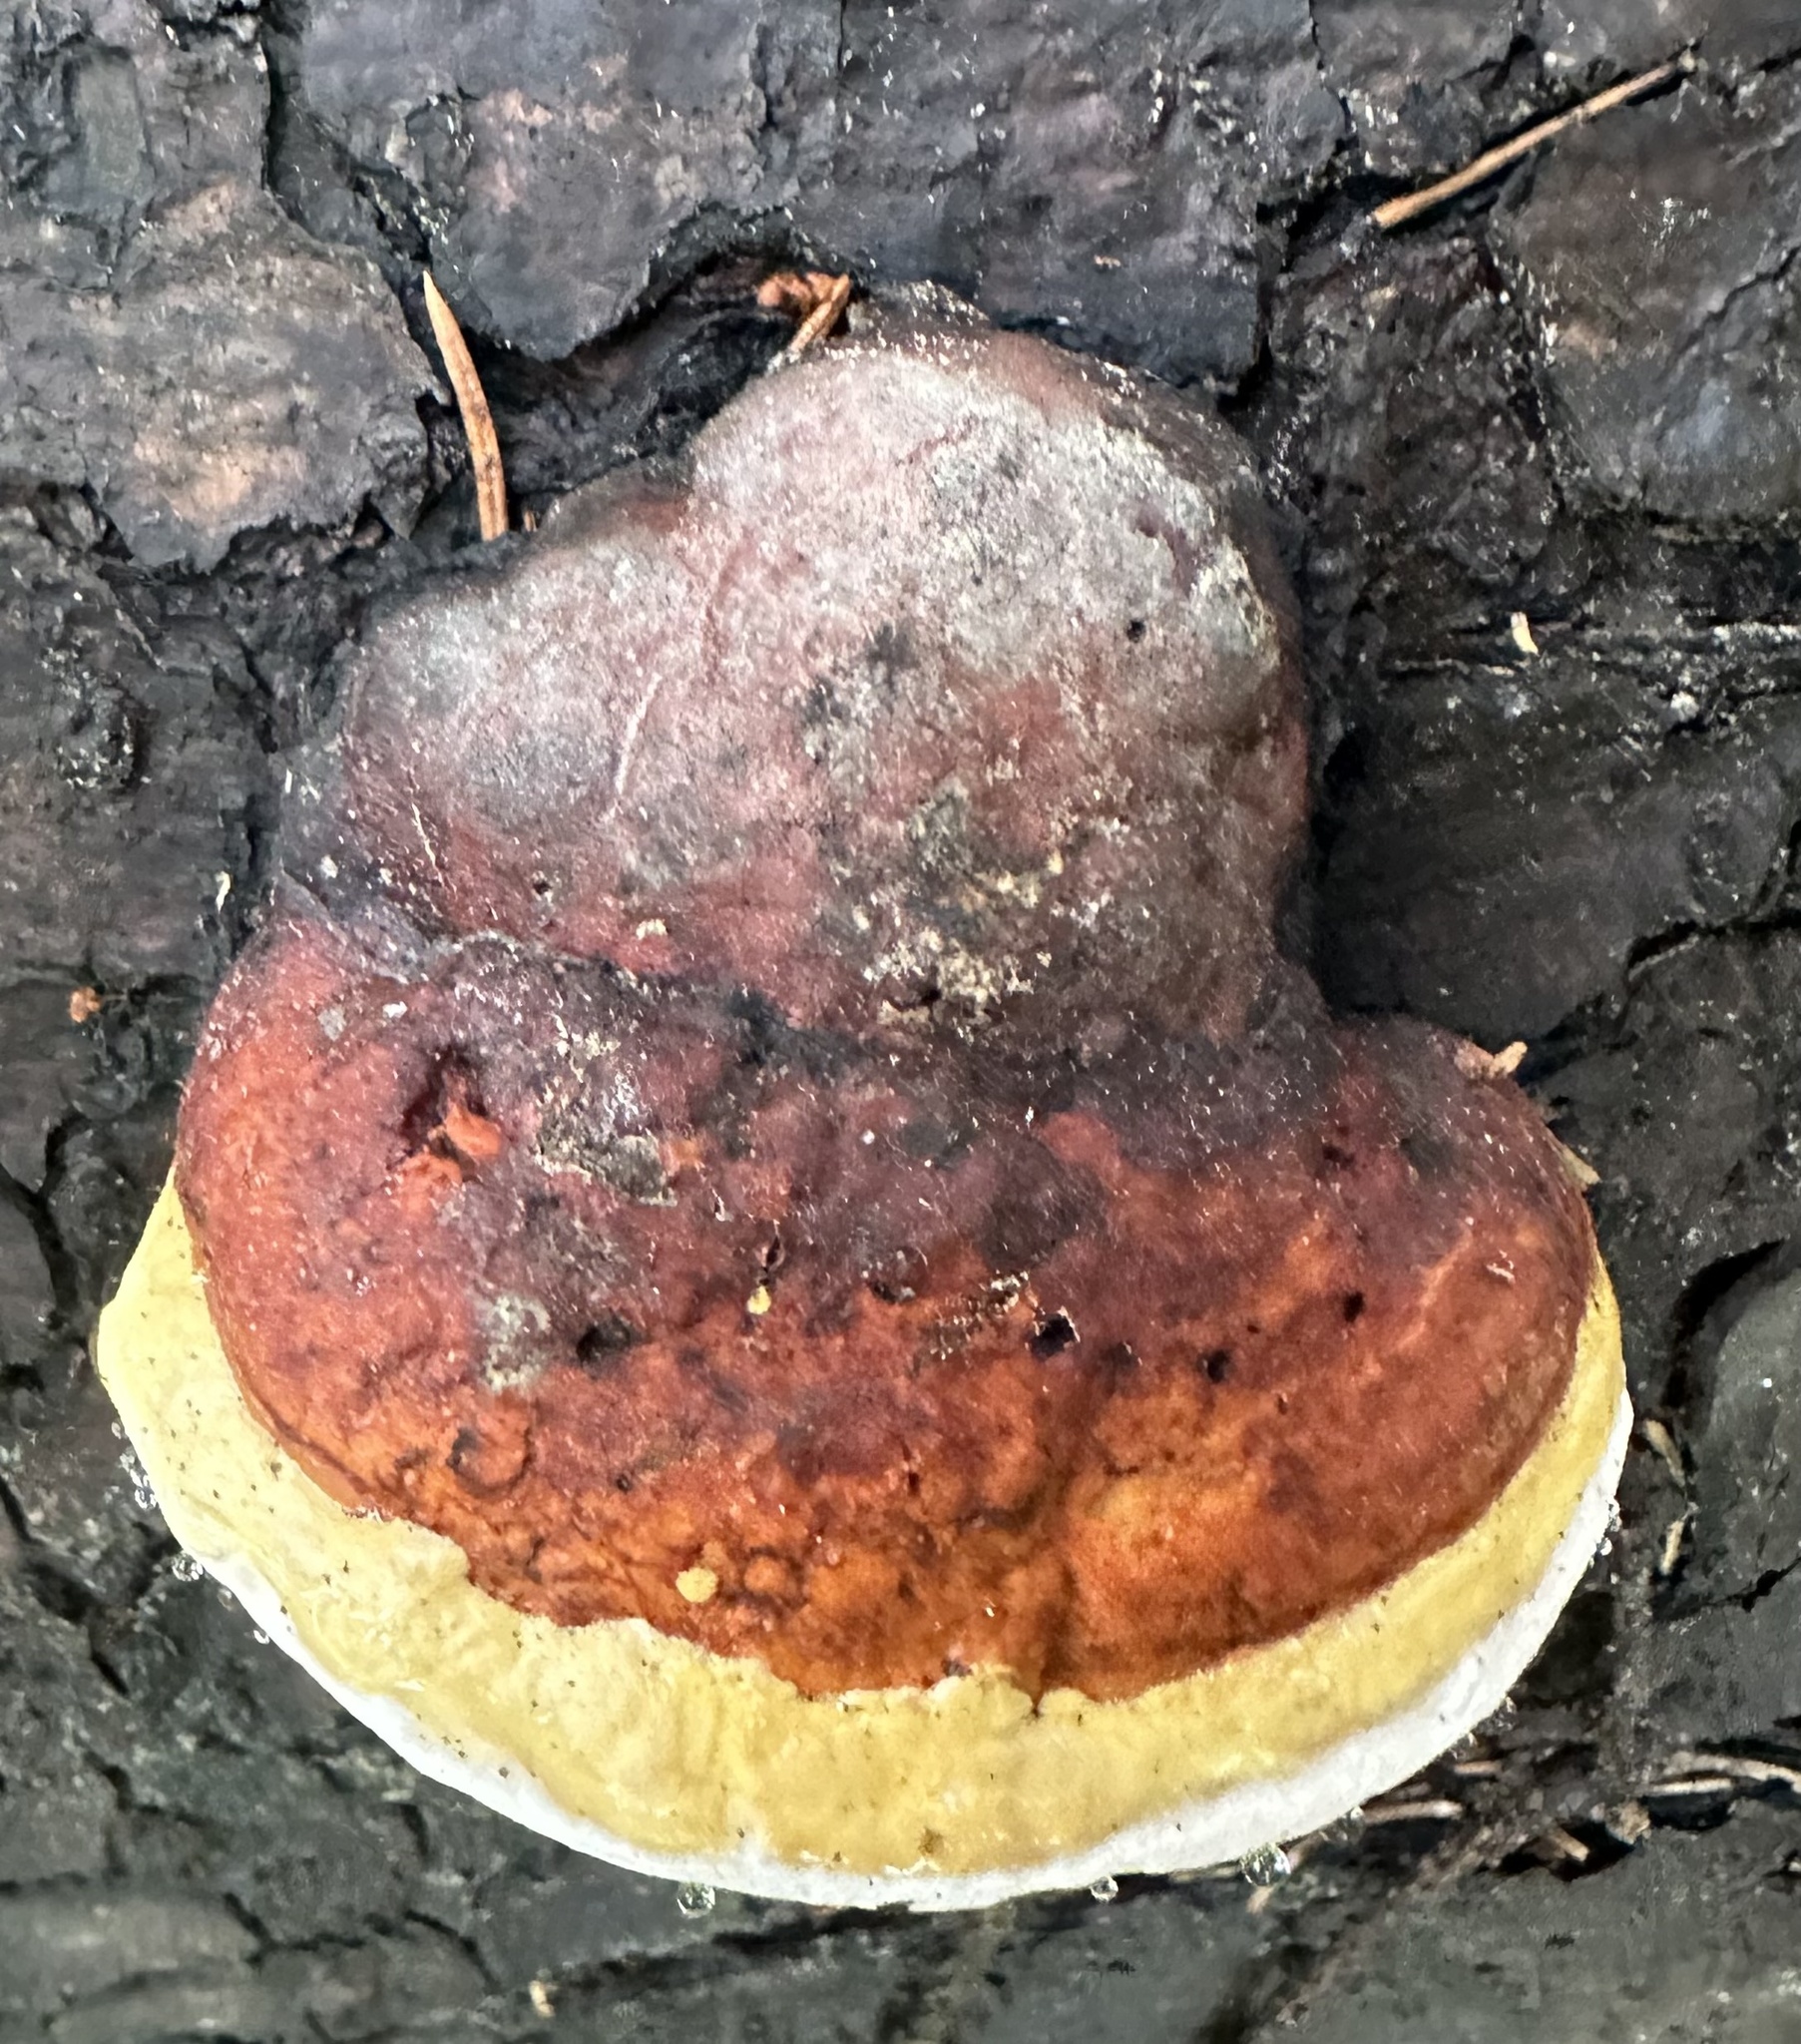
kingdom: Fungi
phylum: Basidiomycota
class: Agaricomycetes
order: Polyporales
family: Fomitopsidaceae
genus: Fomitopsis
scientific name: Fomitopsis pinicola
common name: Red-belted bracket
